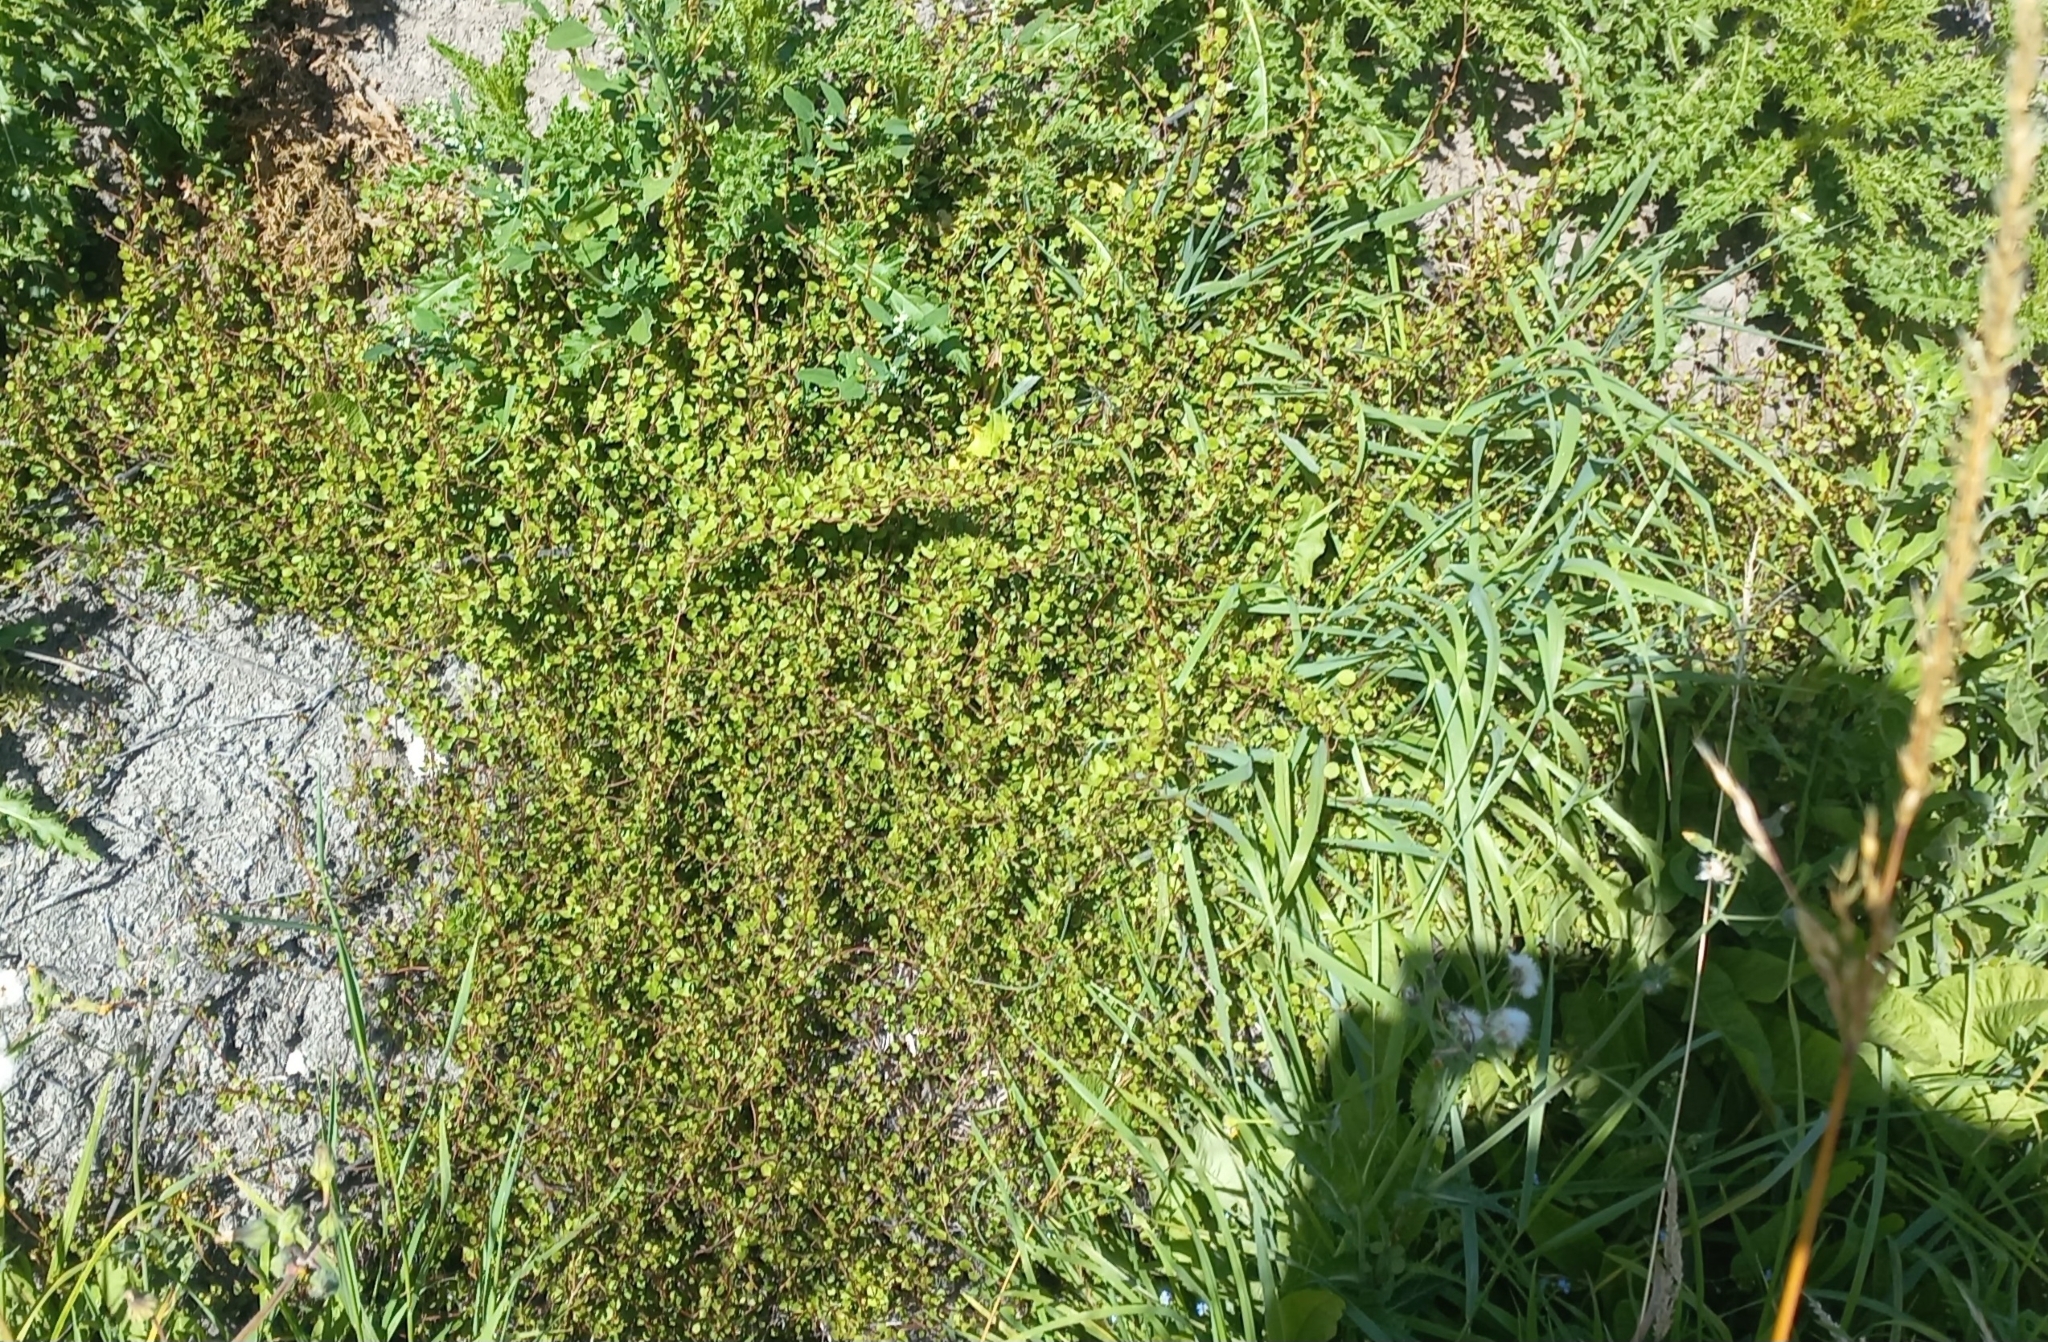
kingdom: Plantae
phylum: Tracheophyta
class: Magnoliopsida
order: Caryophyllales
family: Polygonaceae
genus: Muehlenbeckia
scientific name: Muehlenbeckia complexa
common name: Wireplant
